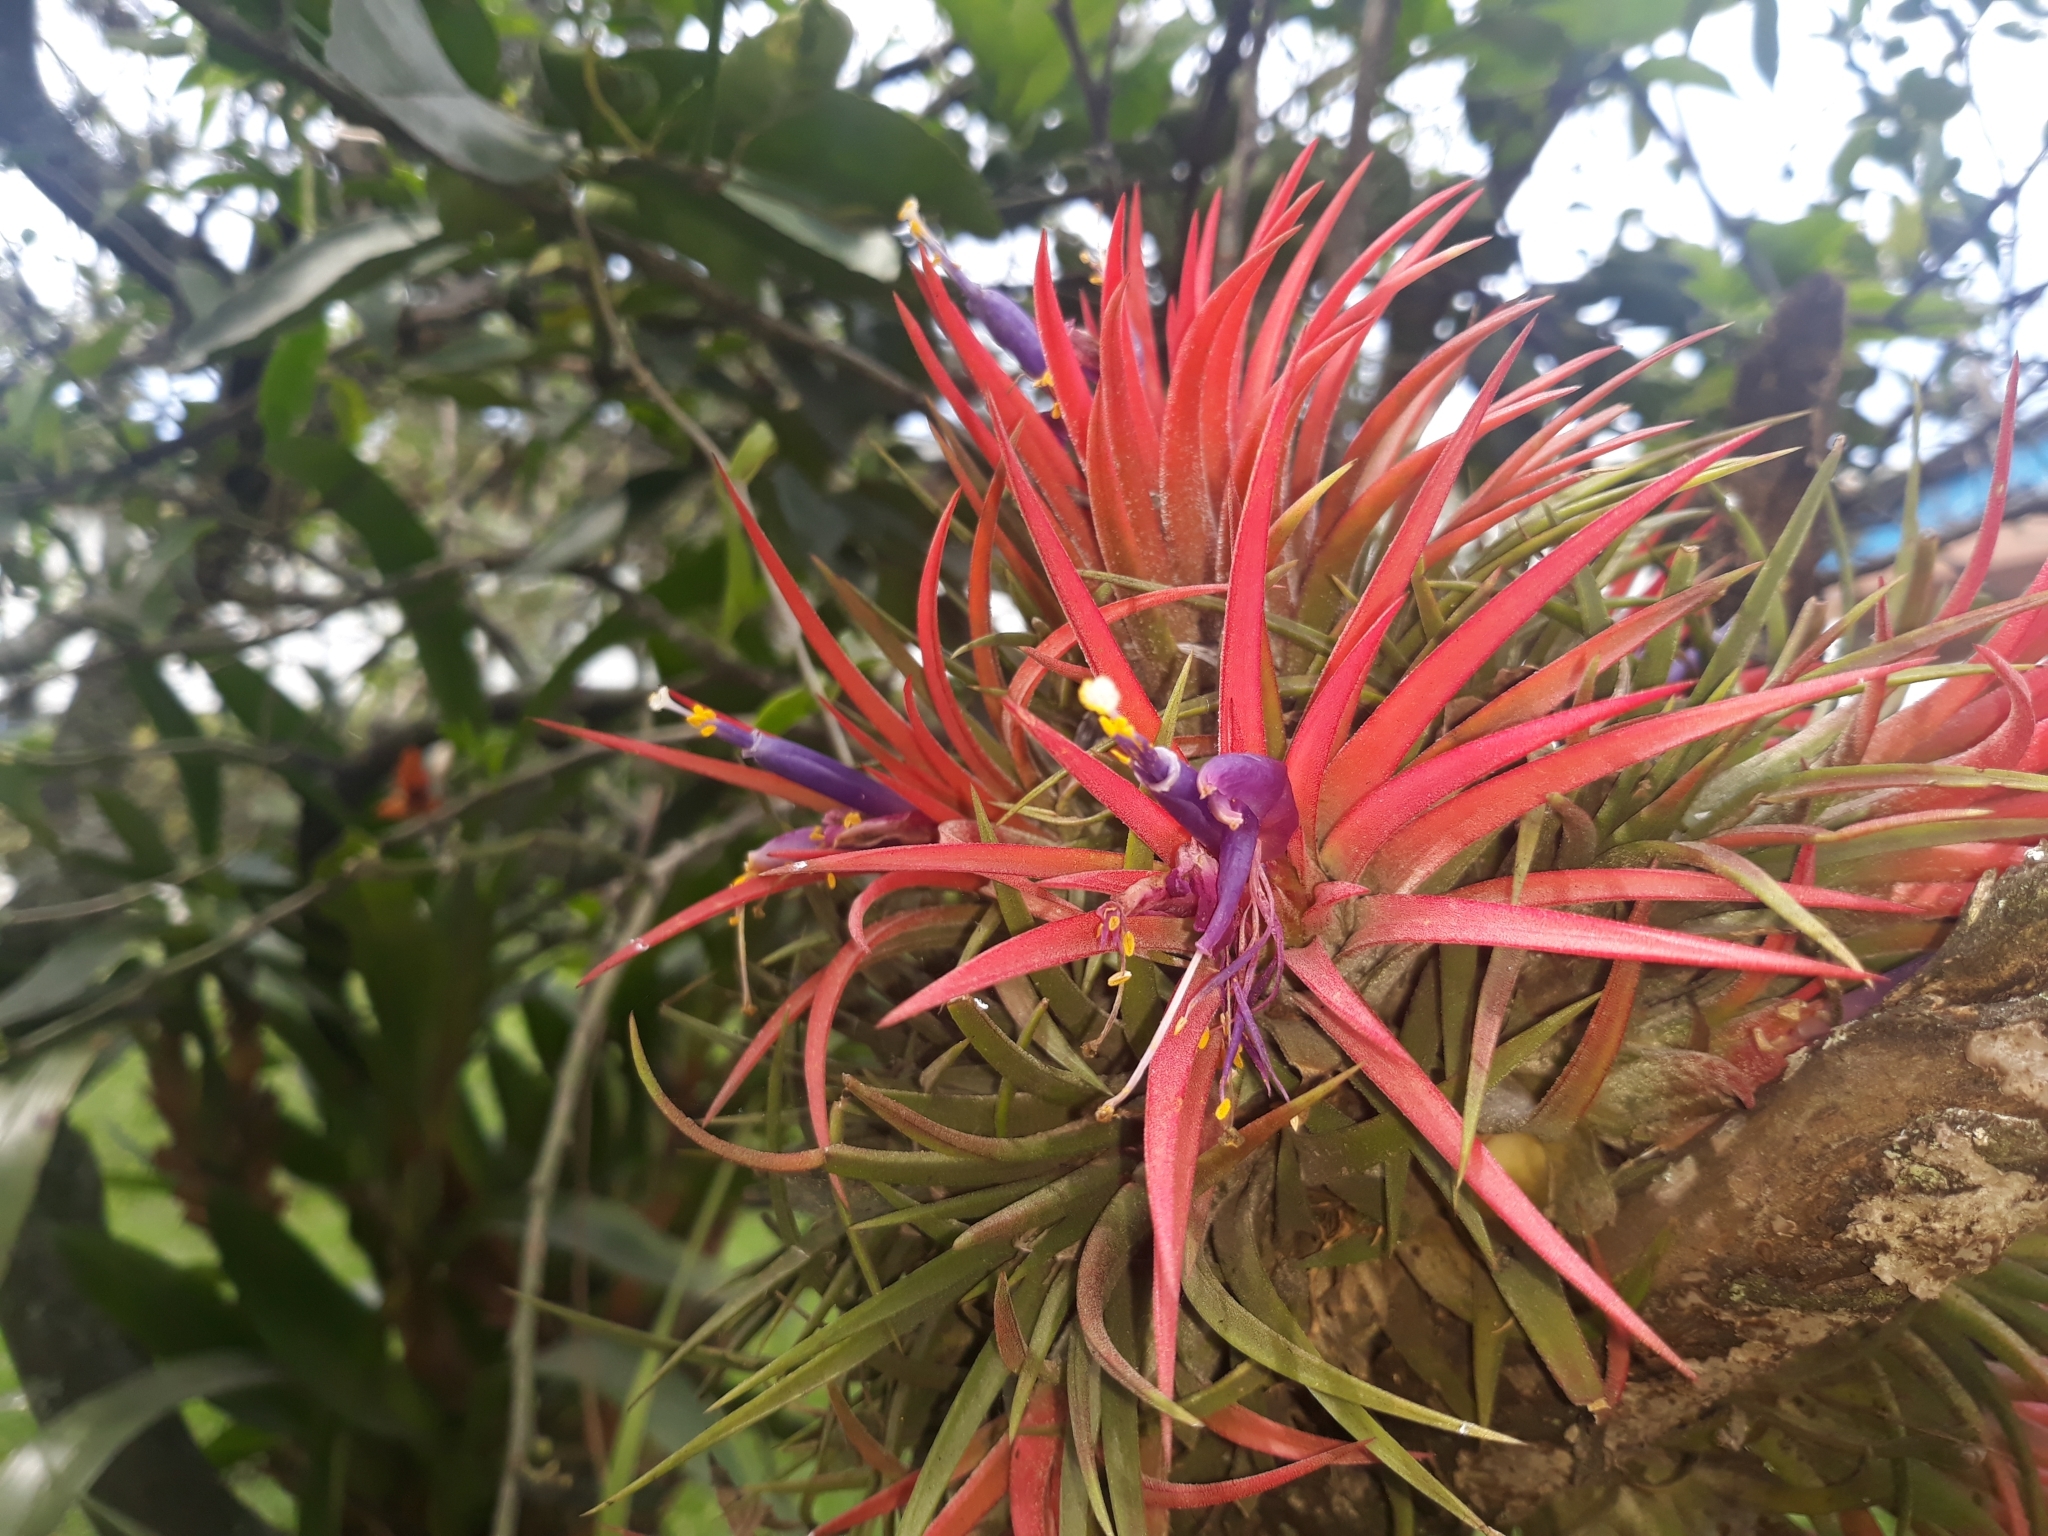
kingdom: Plantae
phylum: Tracheophyta
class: Liliopsida
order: Poales
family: Bromeliaceae
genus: Tillandsia
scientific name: Tillandsia ionantha
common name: Sky plant
